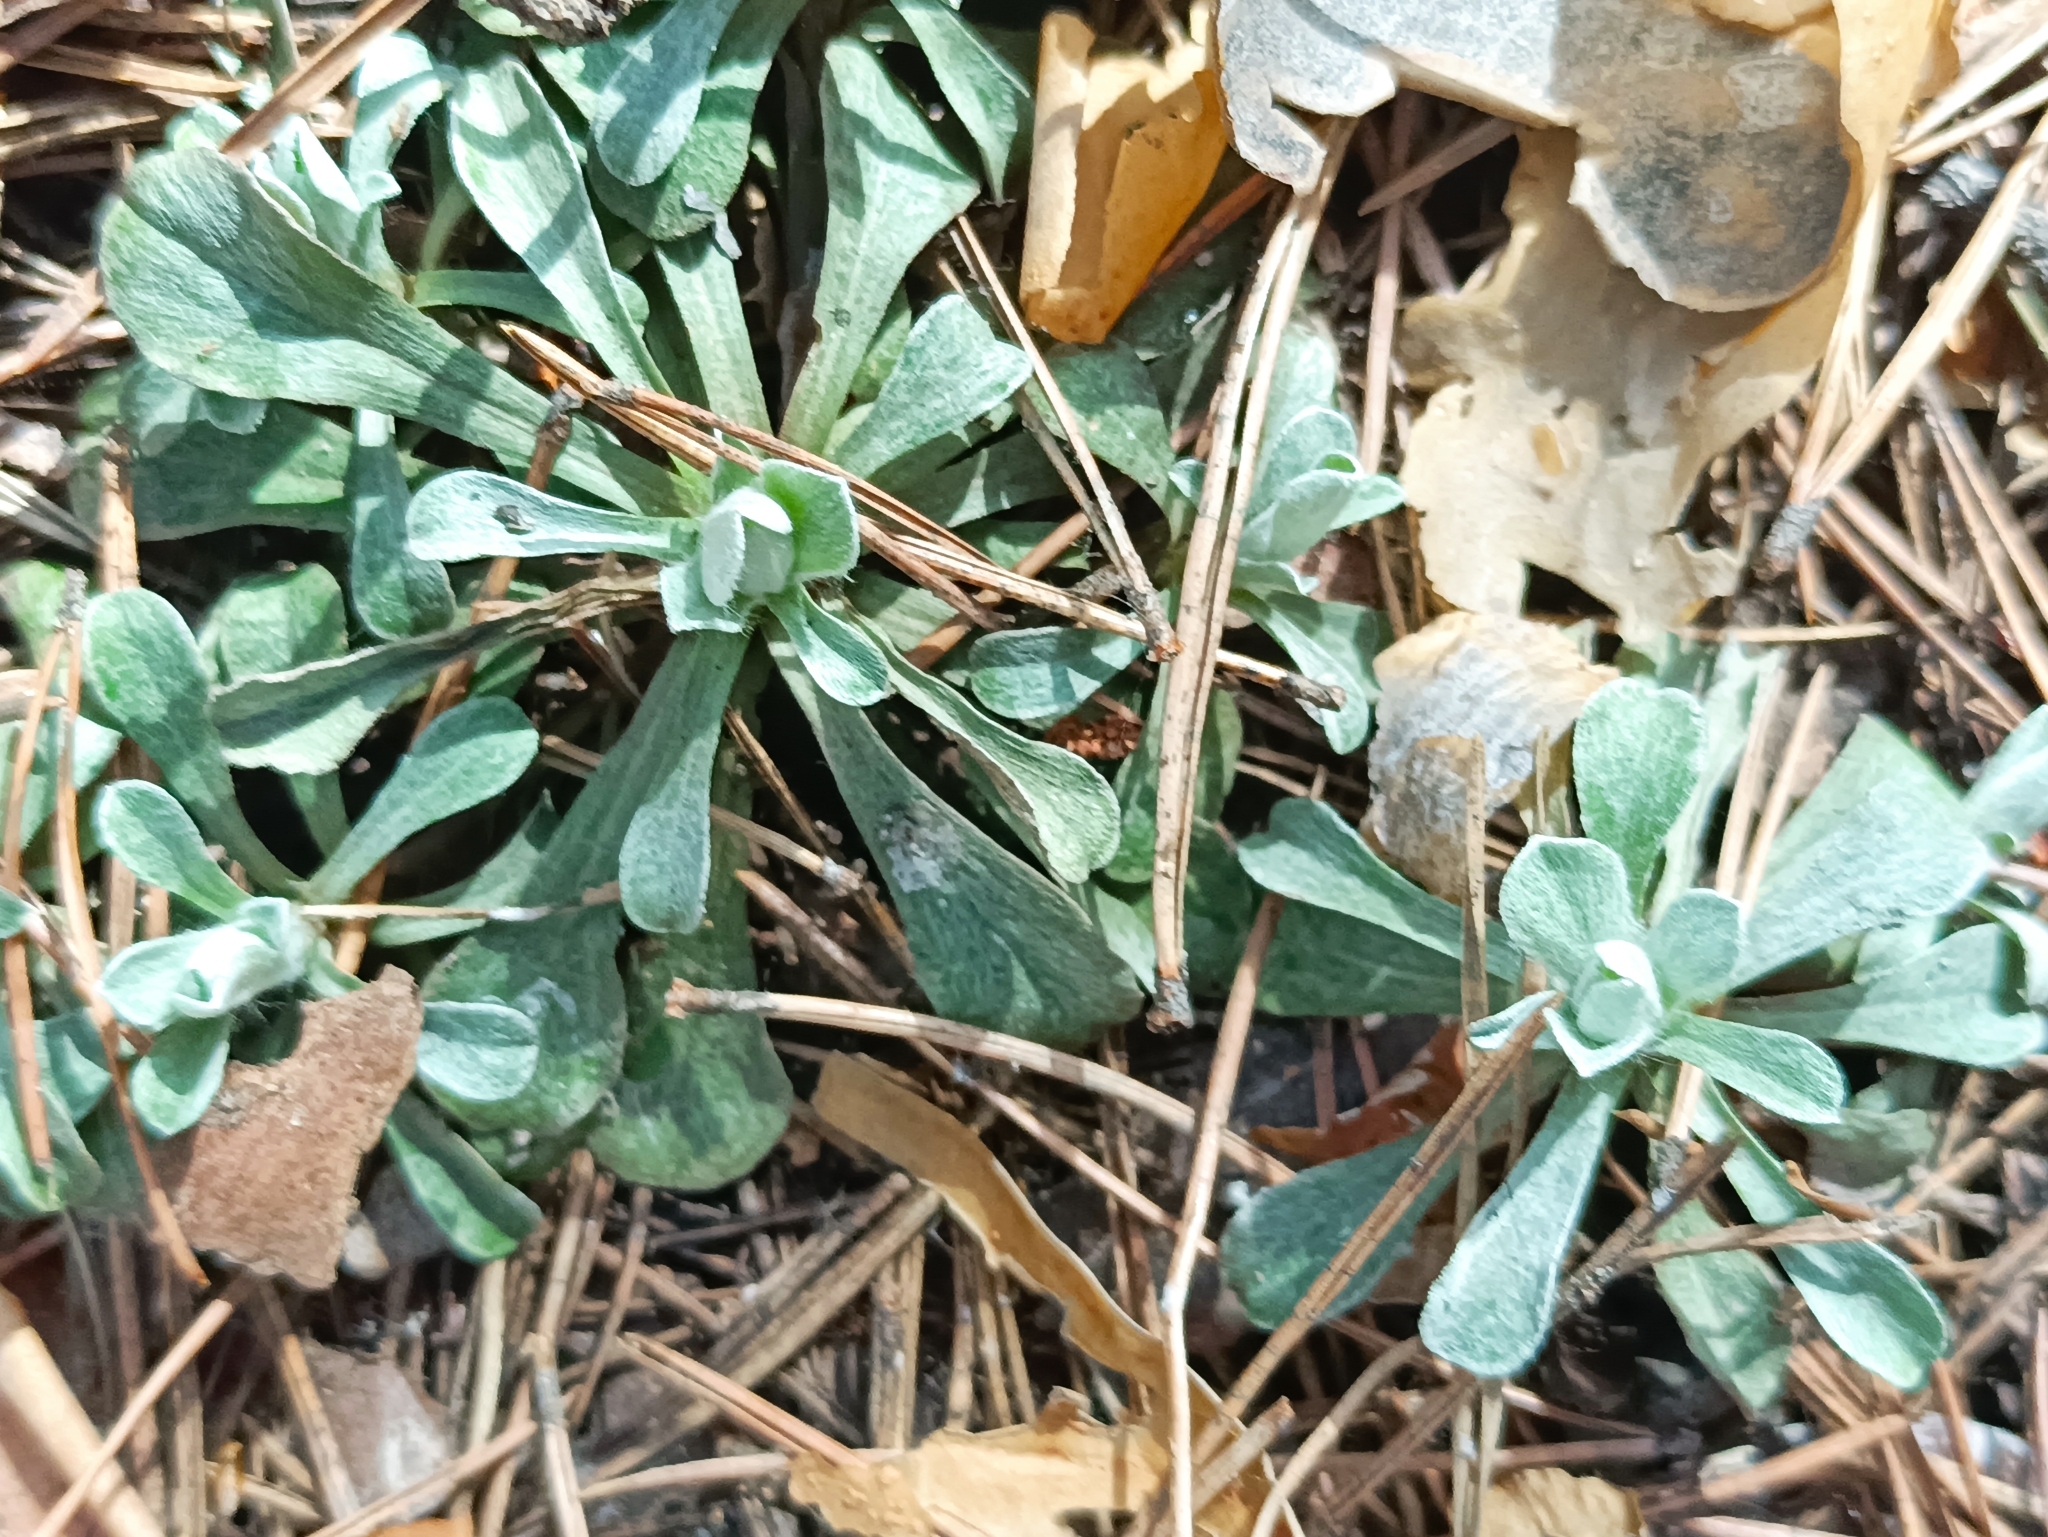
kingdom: Plantae
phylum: Tracheophyta
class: Magnoliopsida
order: Asterales
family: Asteraceae
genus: Antennaria
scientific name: Antennaria dioica
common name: Mountain everlasting
